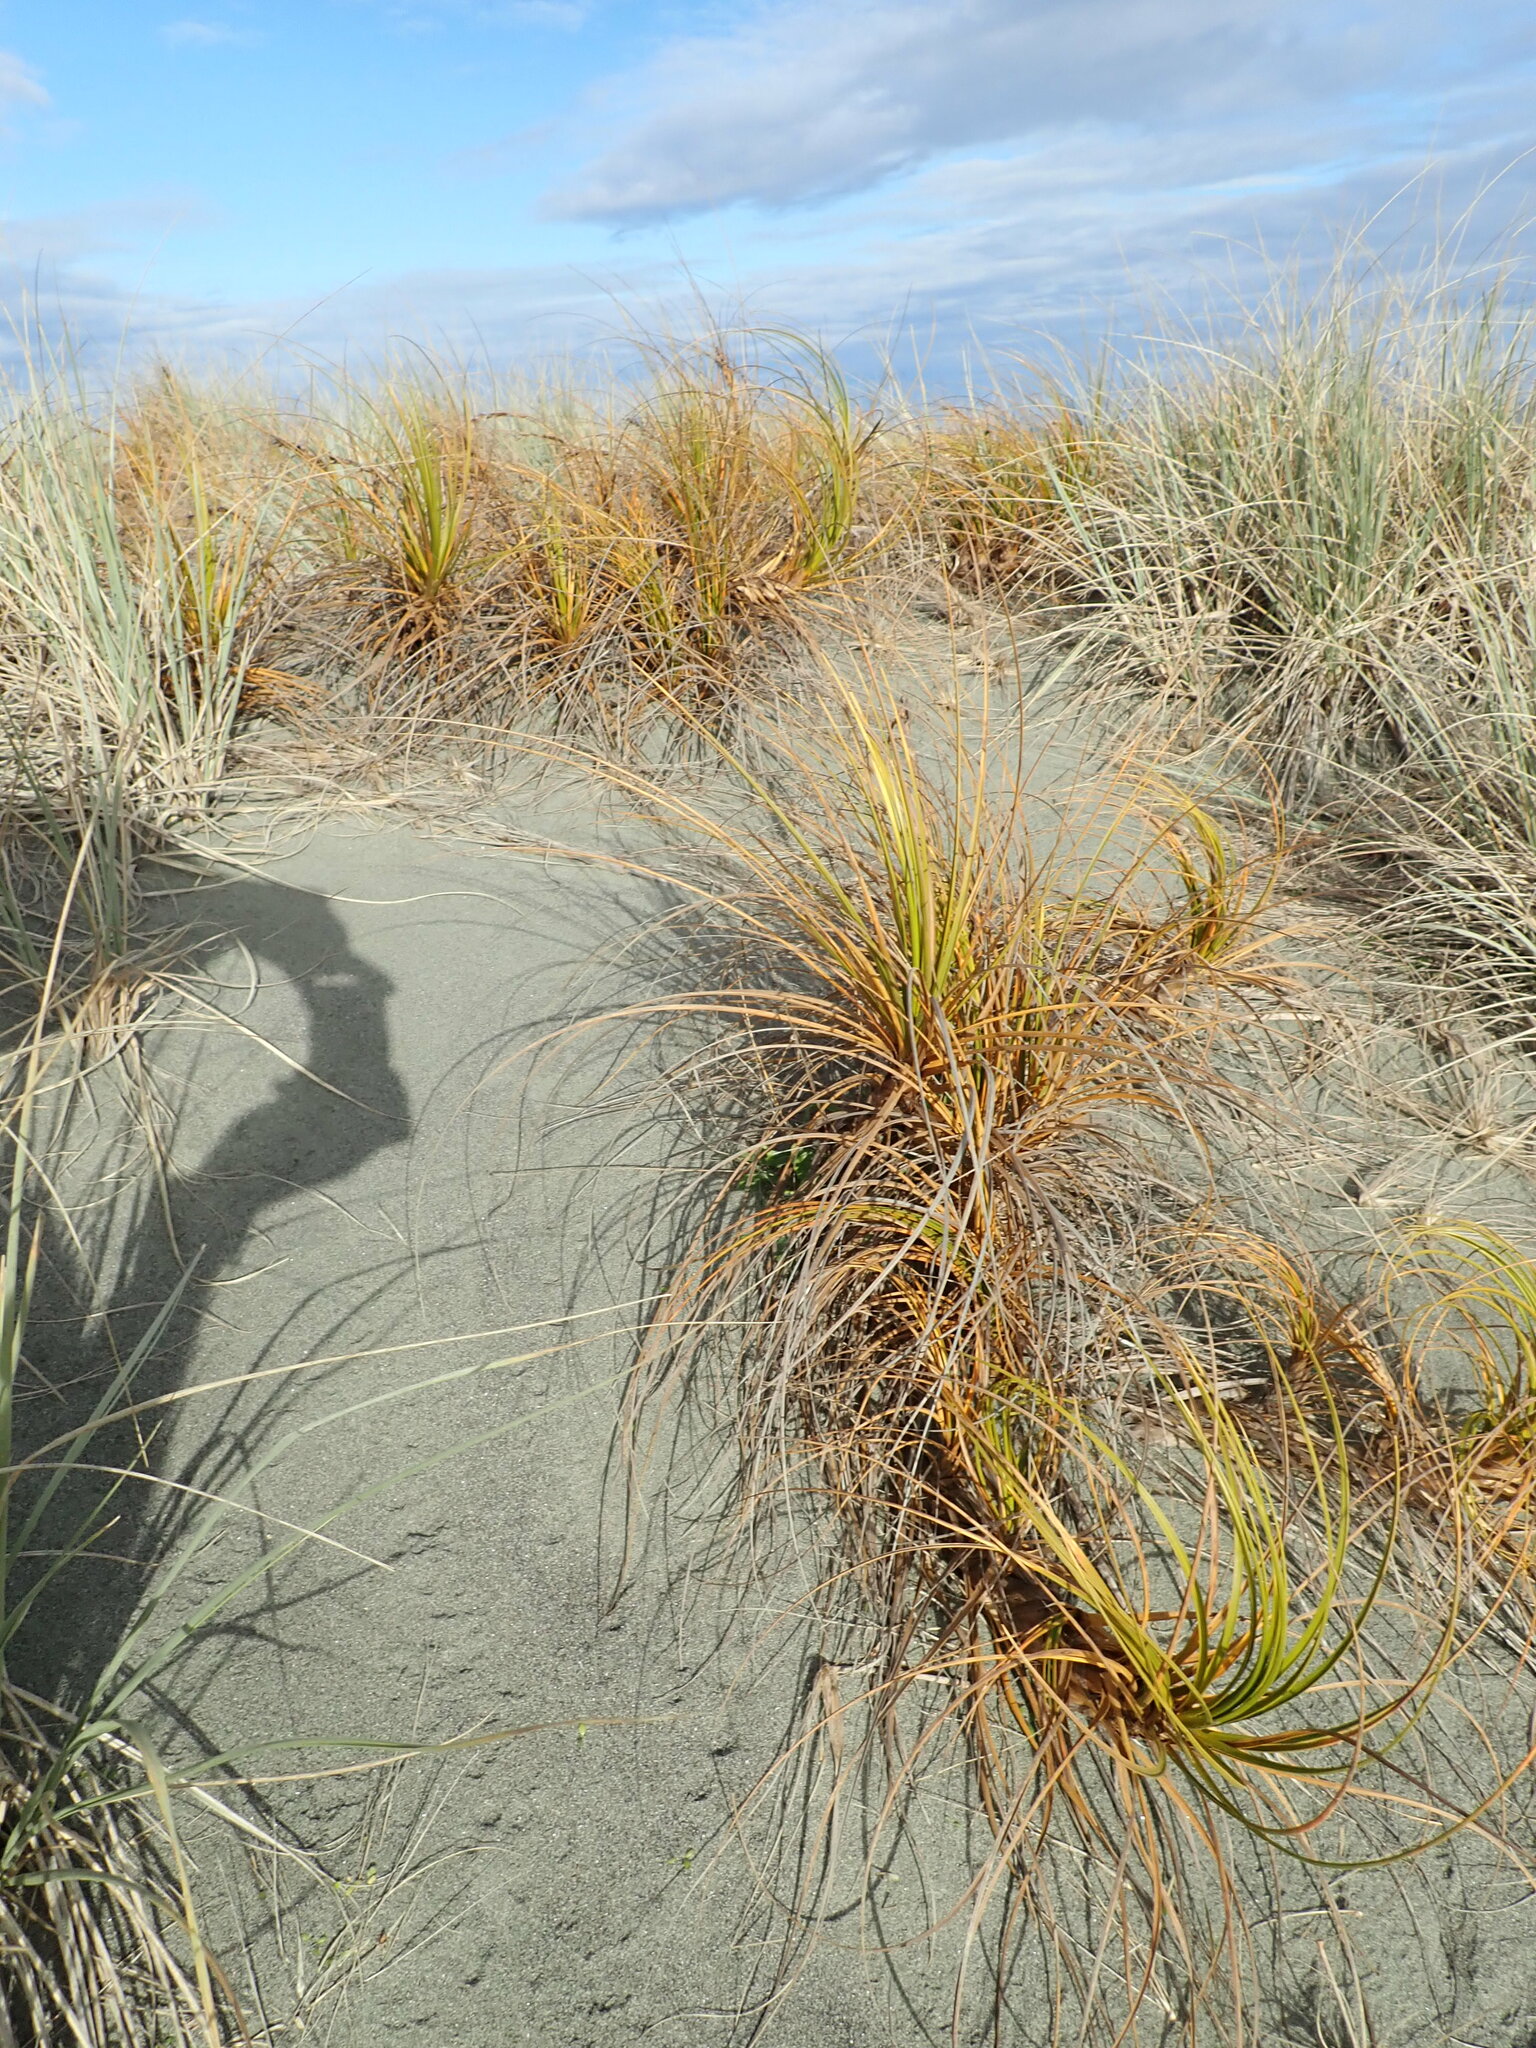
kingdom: Plantae
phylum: Tracheophyta
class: Liliopsida
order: Poales
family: Cyperaceae
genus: Ficinia
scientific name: Ficinia spiralis
